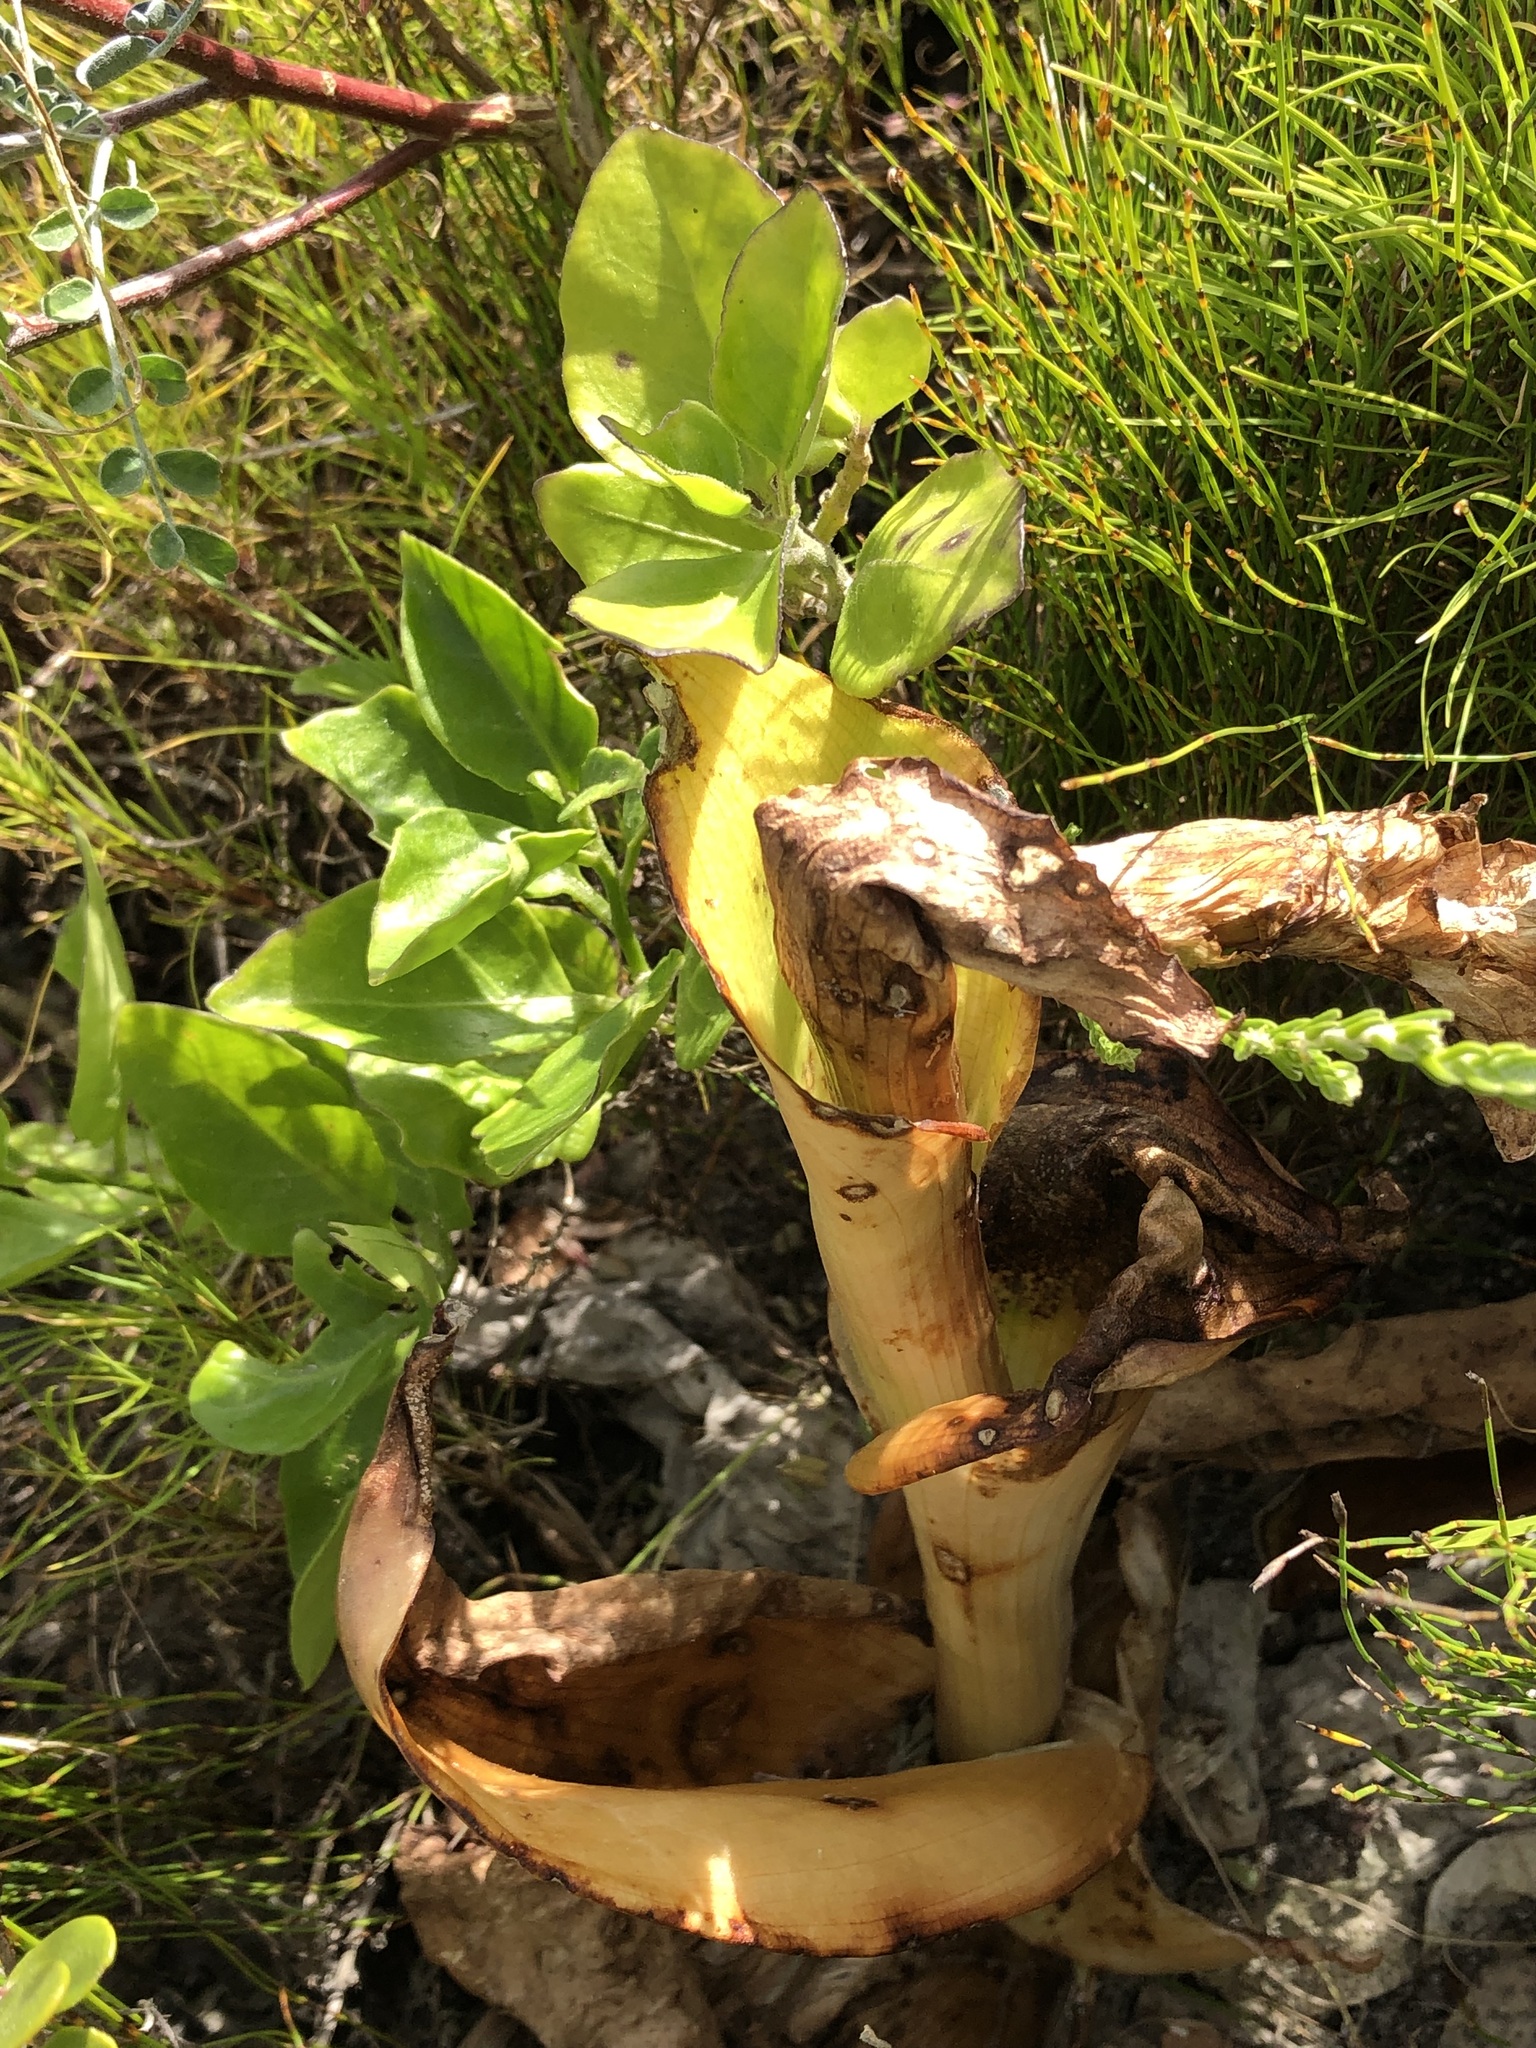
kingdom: Plantae
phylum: Tracheophyta
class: Liliopsida
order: Asparagales
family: Orchidaceae
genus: Satyrium
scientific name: Satyrium carneum
